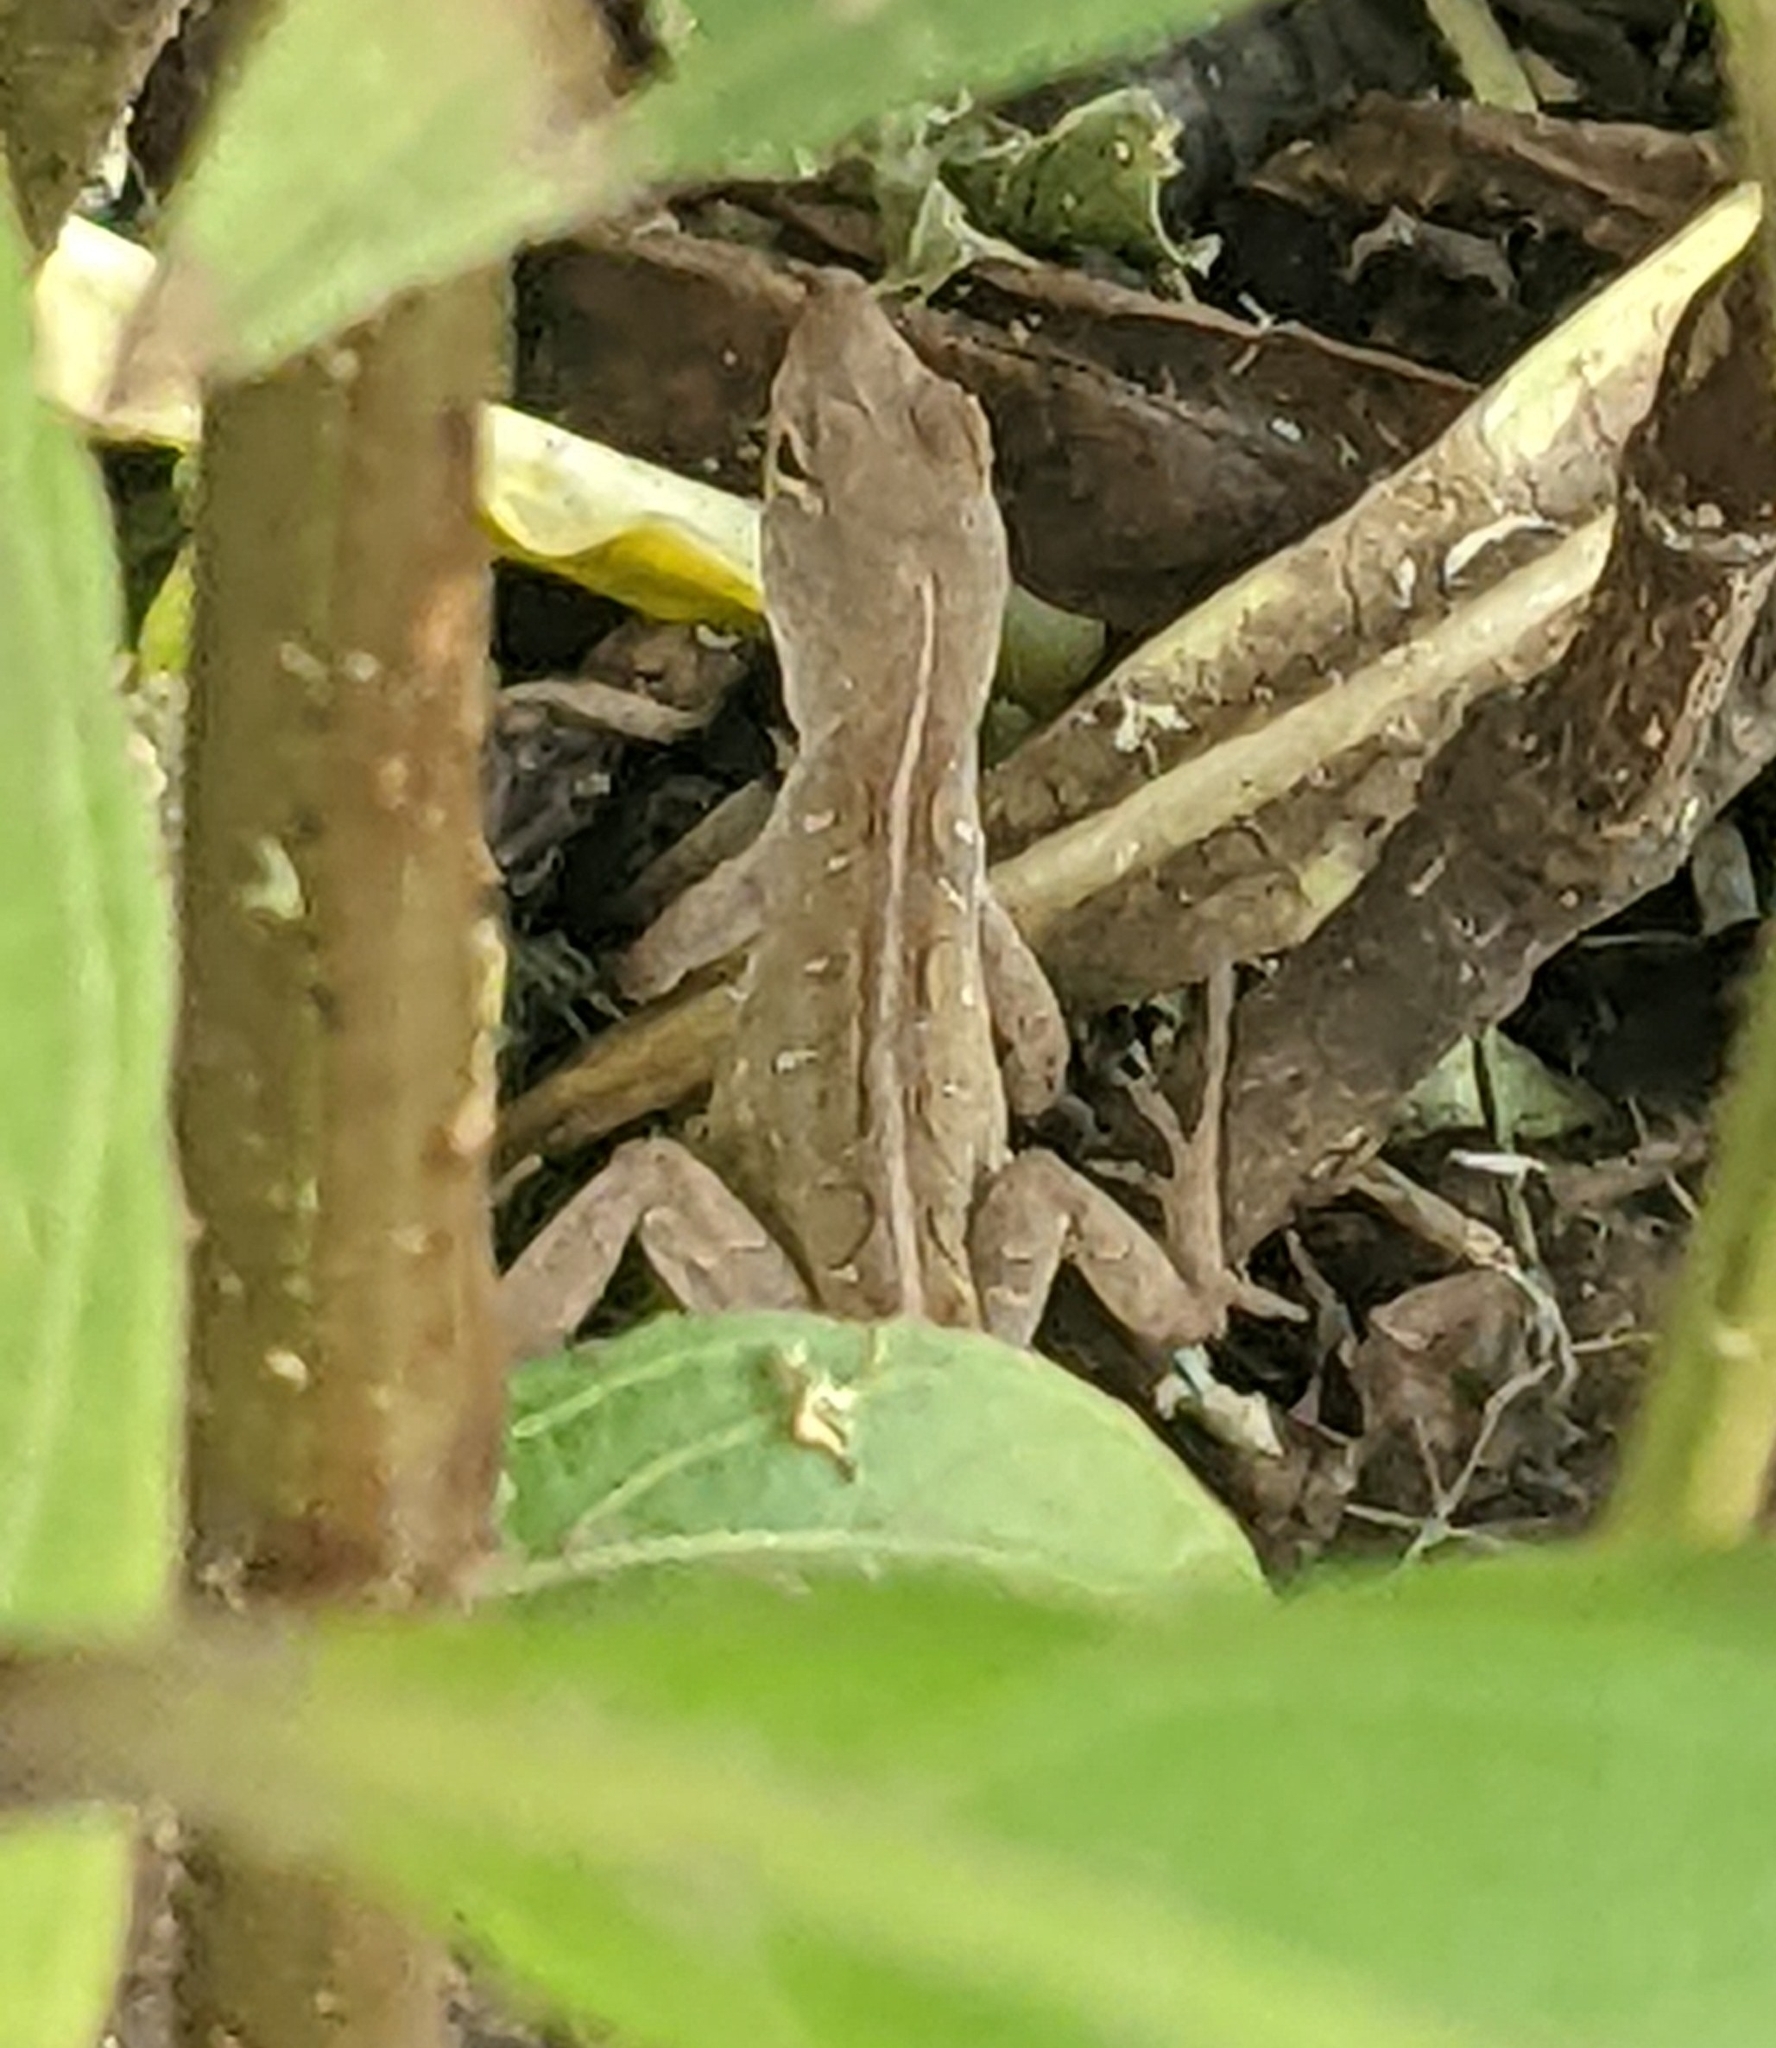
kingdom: Animalia
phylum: Chordata
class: Squamata
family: Dactyloidae
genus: Anolis
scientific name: Anolis sagrei
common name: Brown anole
